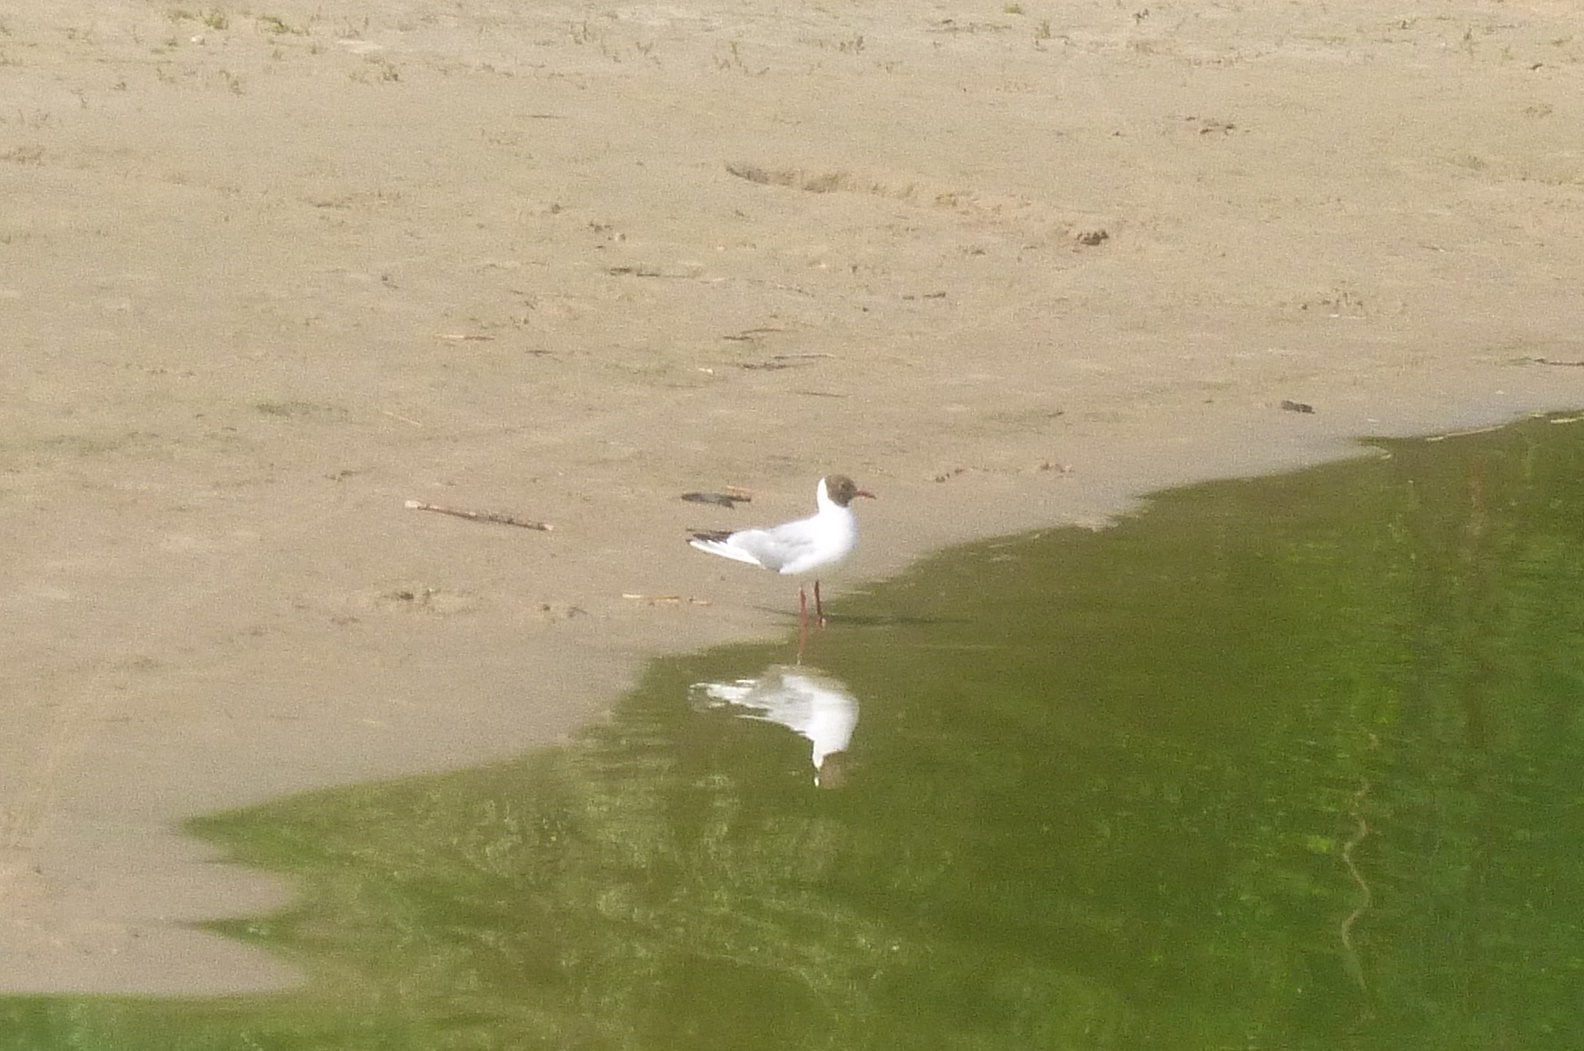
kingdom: Animalia
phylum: Chordata
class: Aves
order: Charadriiformes
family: Laridae
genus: Chroicocephalus
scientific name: Chroicocephalus ridibundus
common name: Black-headed gull
